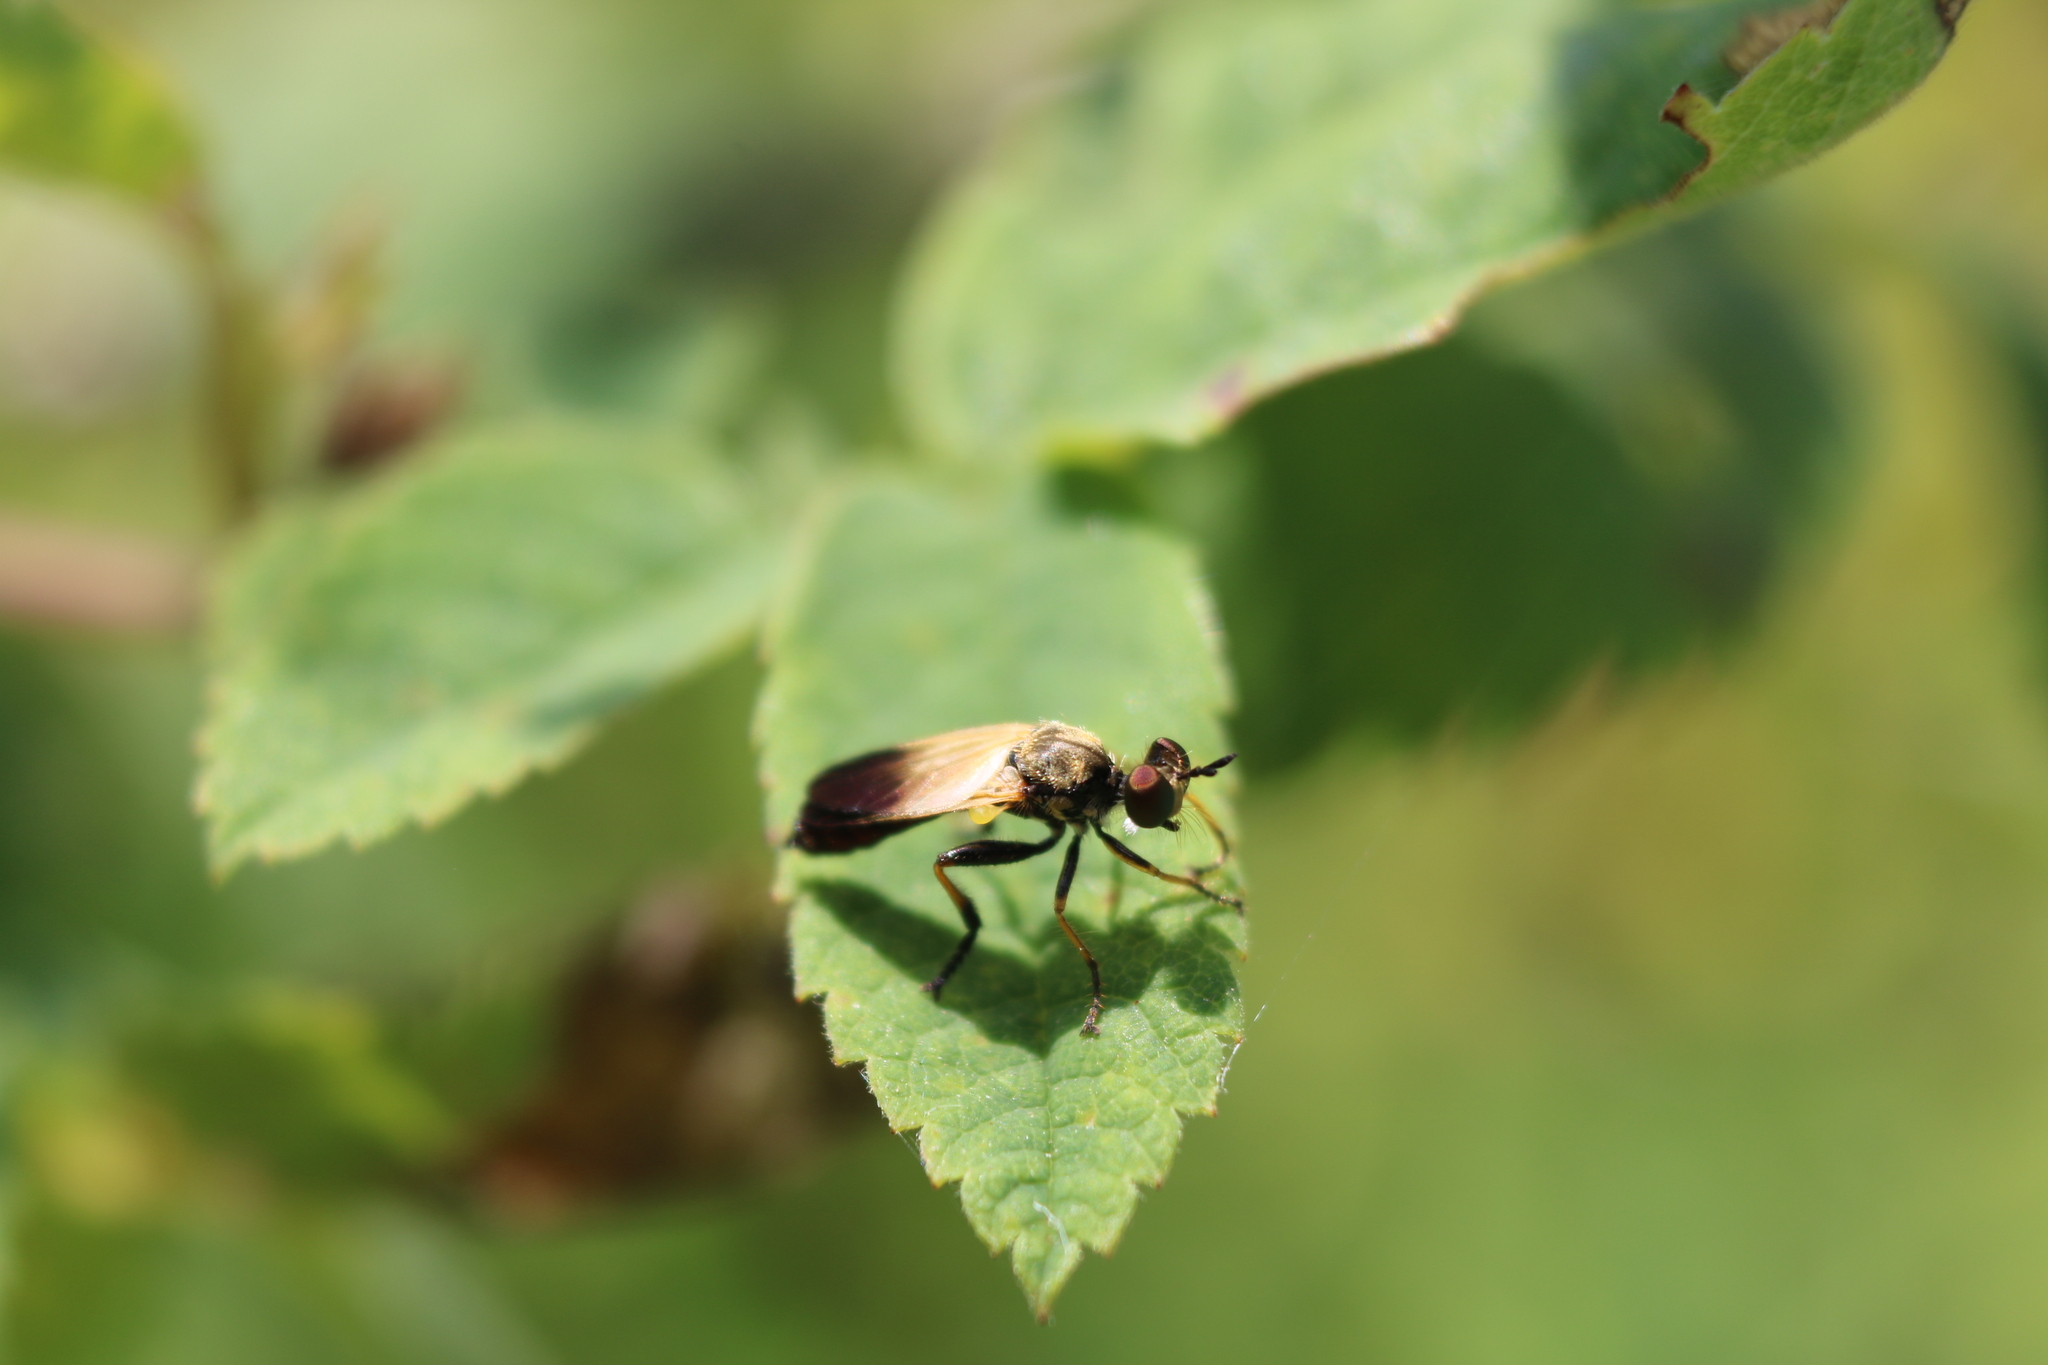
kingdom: Animalia
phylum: Arthropoda
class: Insecta
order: Diptera
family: Asilidae
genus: Eudioctria
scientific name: Eudioctria sackeni
